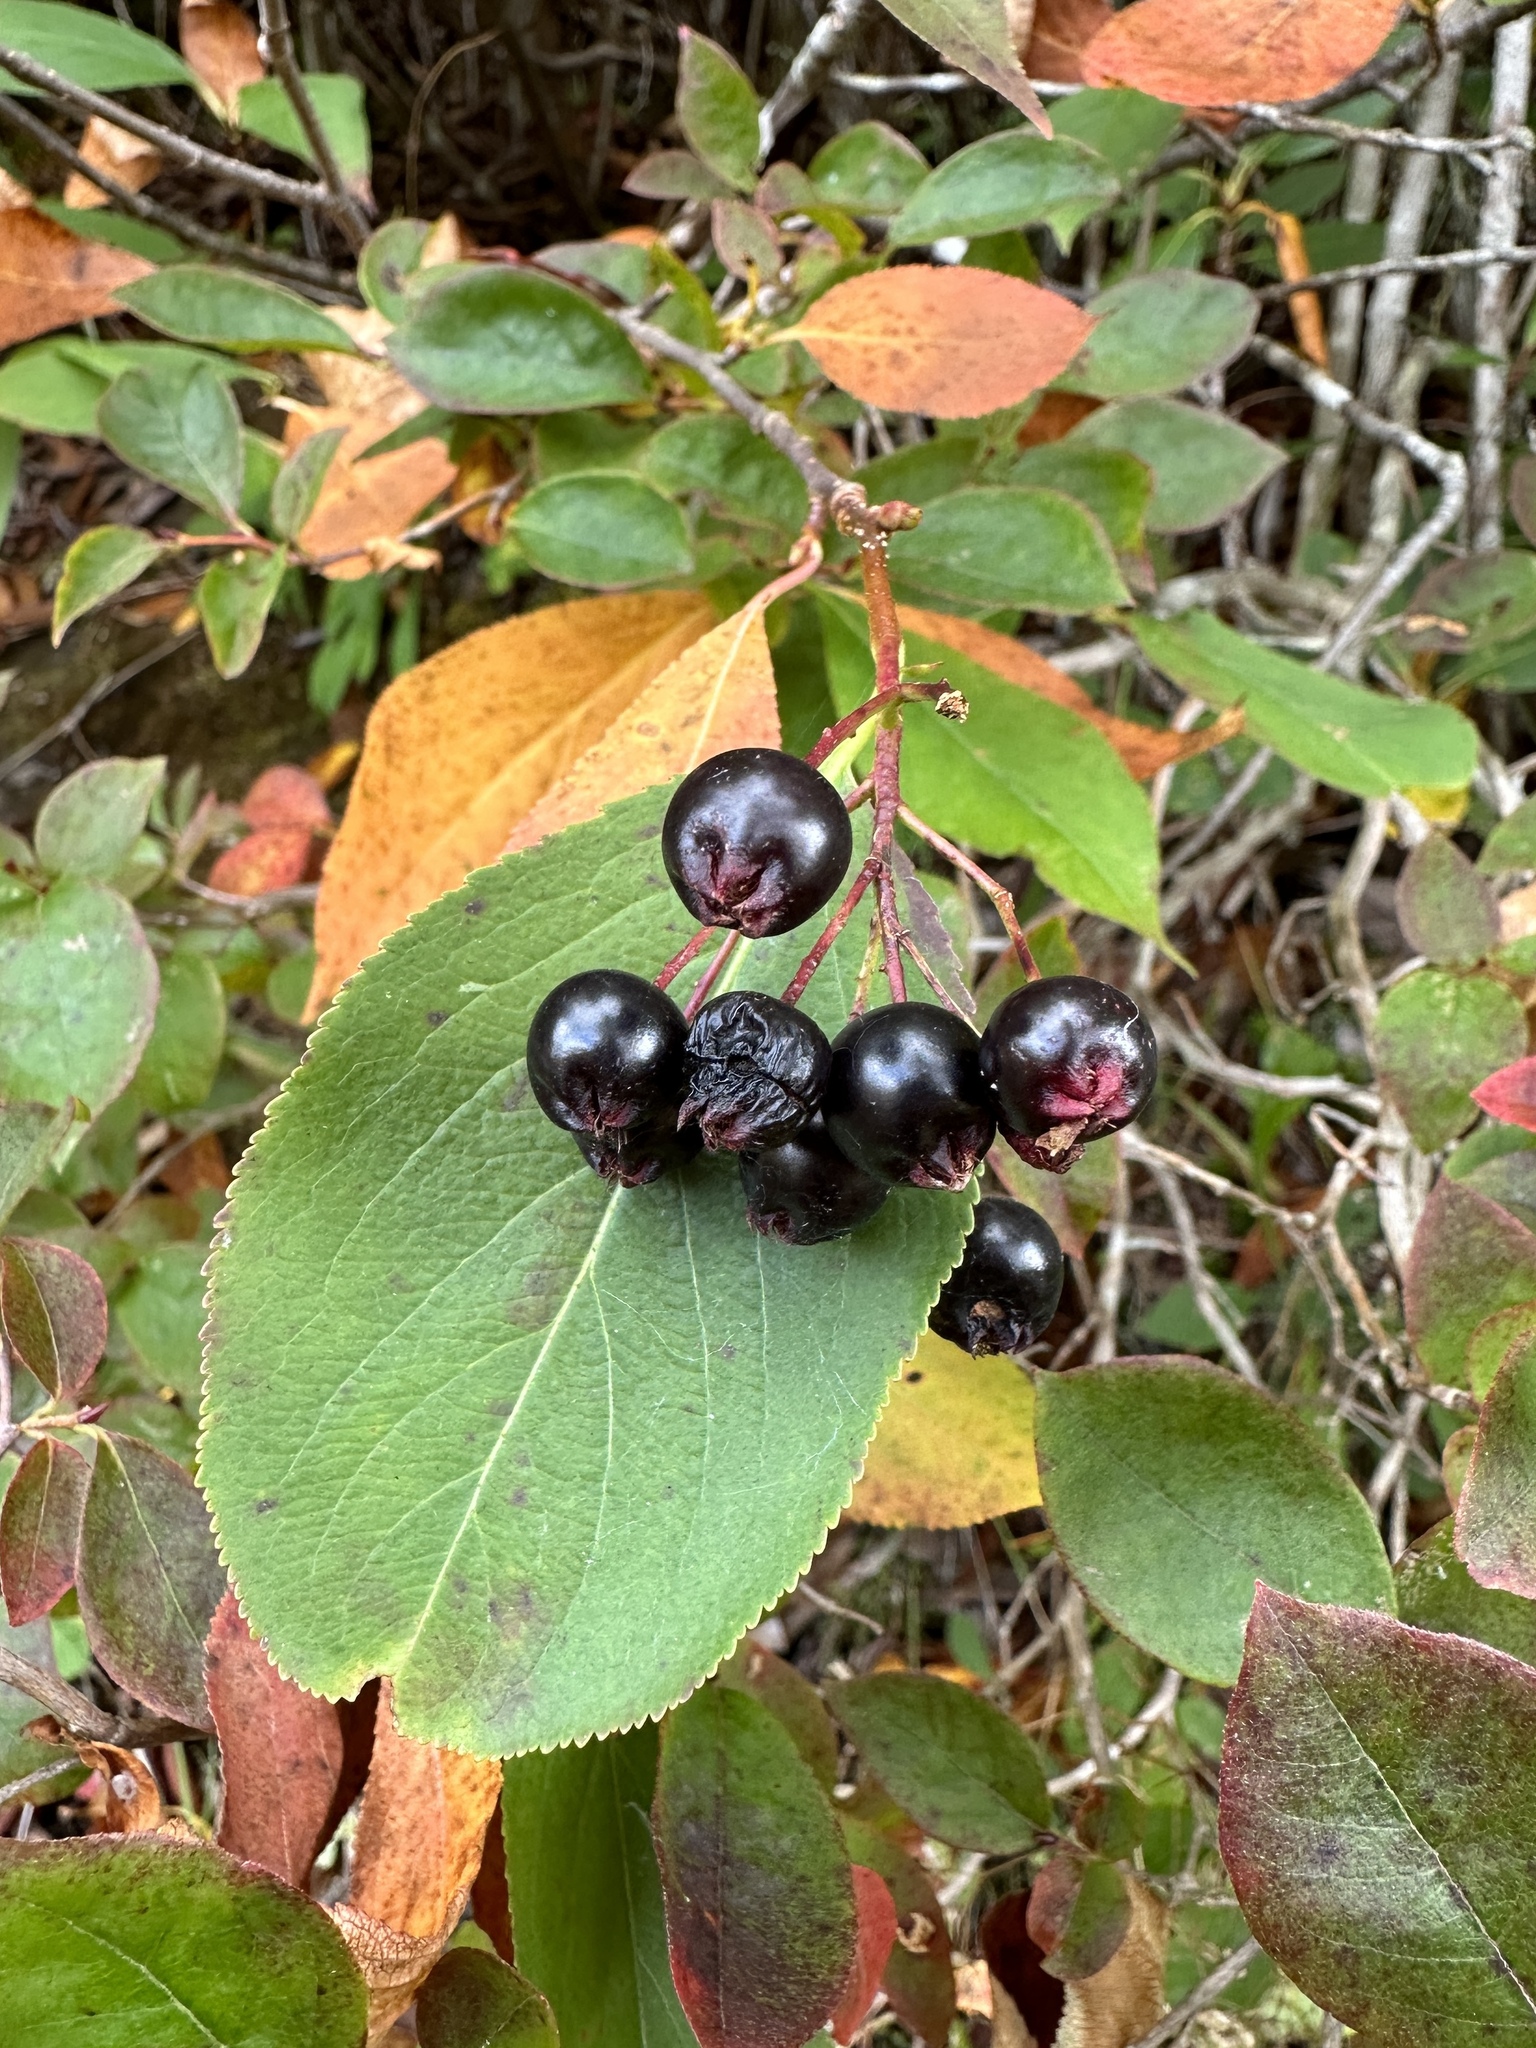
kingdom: Plantae
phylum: Tracheophyta
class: Magnoliopsida
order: Rosales
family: Rosaceae
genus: Aronia
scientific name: Aronia melanocarpa
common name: Black chokeberry
